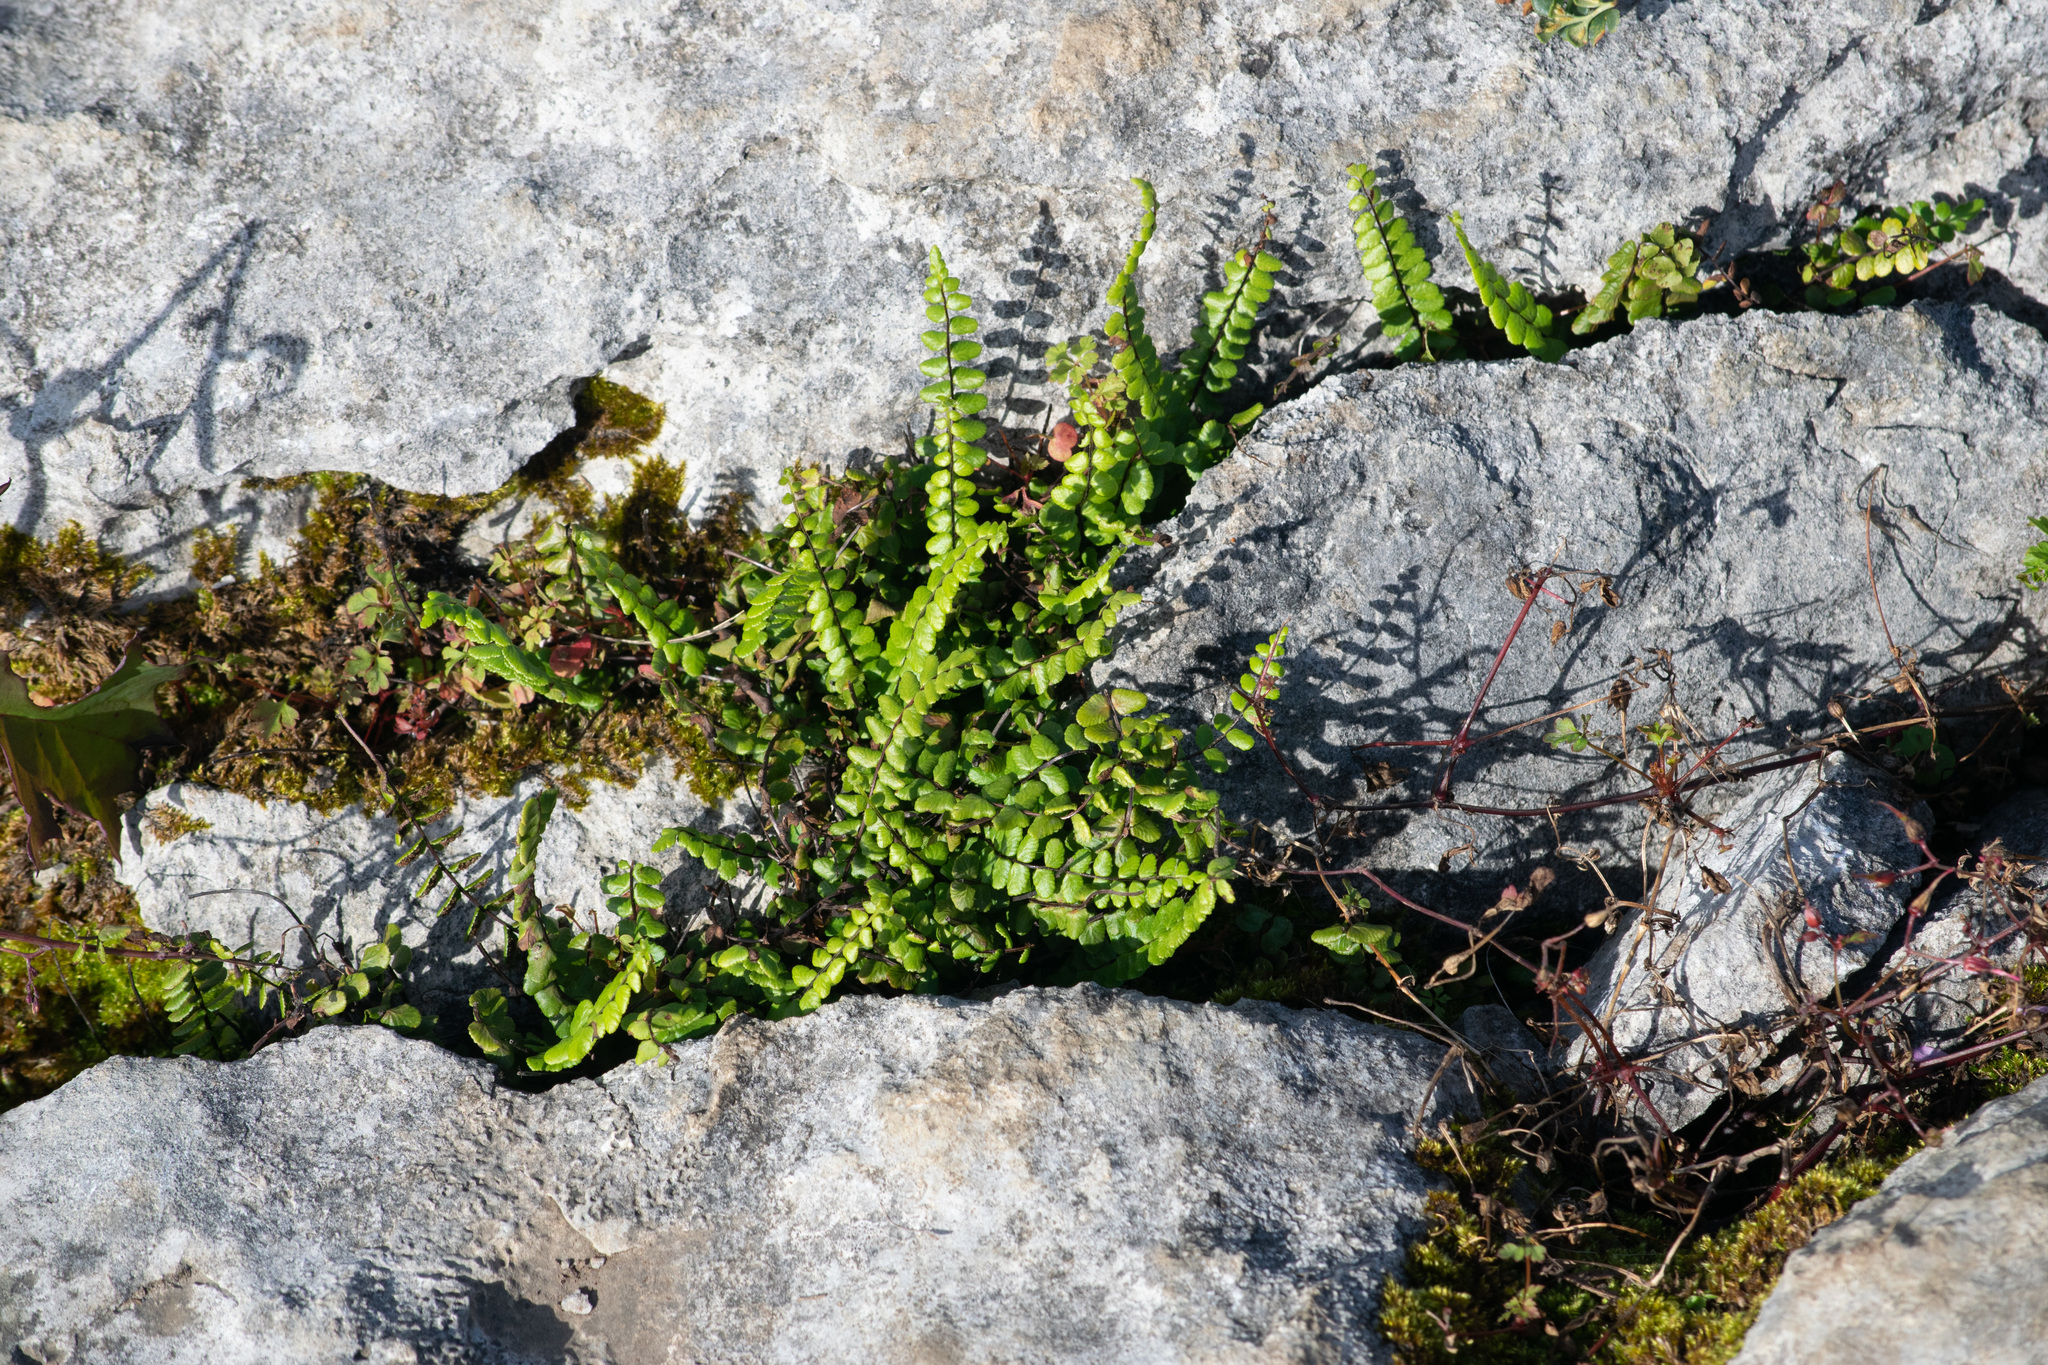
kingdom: Plantae
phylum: Tracheophyta
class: Polypodiopsida
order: Polypodiales
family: Aspleniaceae
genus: Asplenium
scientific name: Asplenium trichomanes
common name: Maidenhair spleenwort
